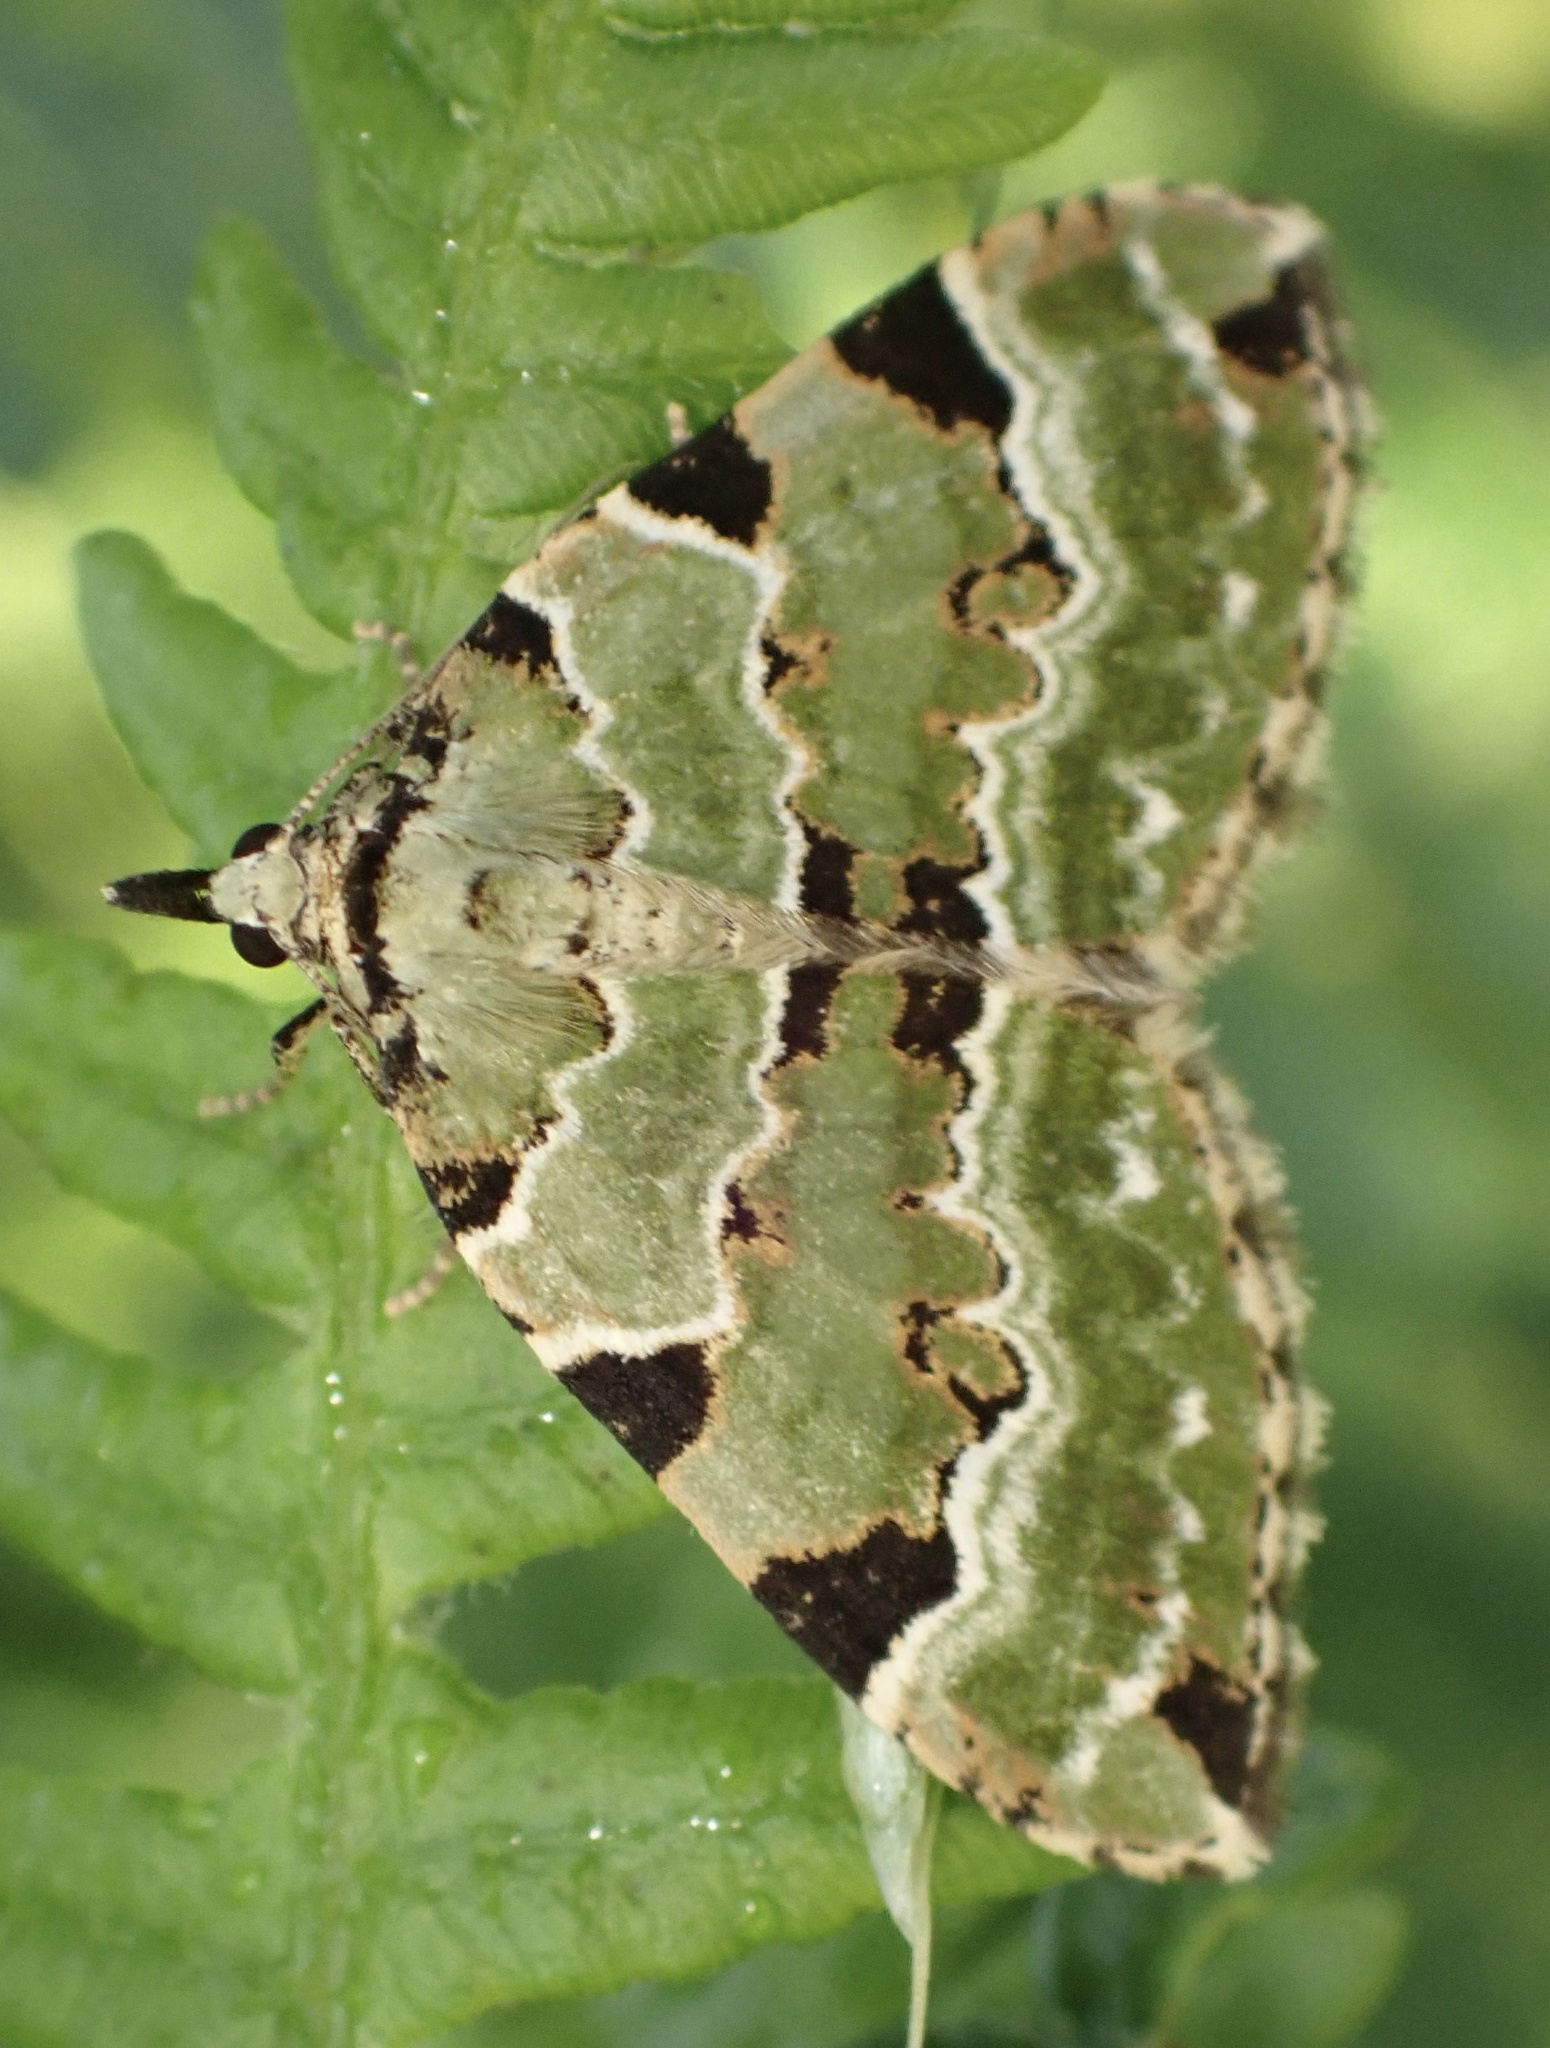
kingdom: Animalia
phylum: Arthropoda
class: Insecta
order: Lepidoptera
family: Geometridae
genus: Colostygia
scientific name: Colostygia pectinataria
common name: Green carpet
